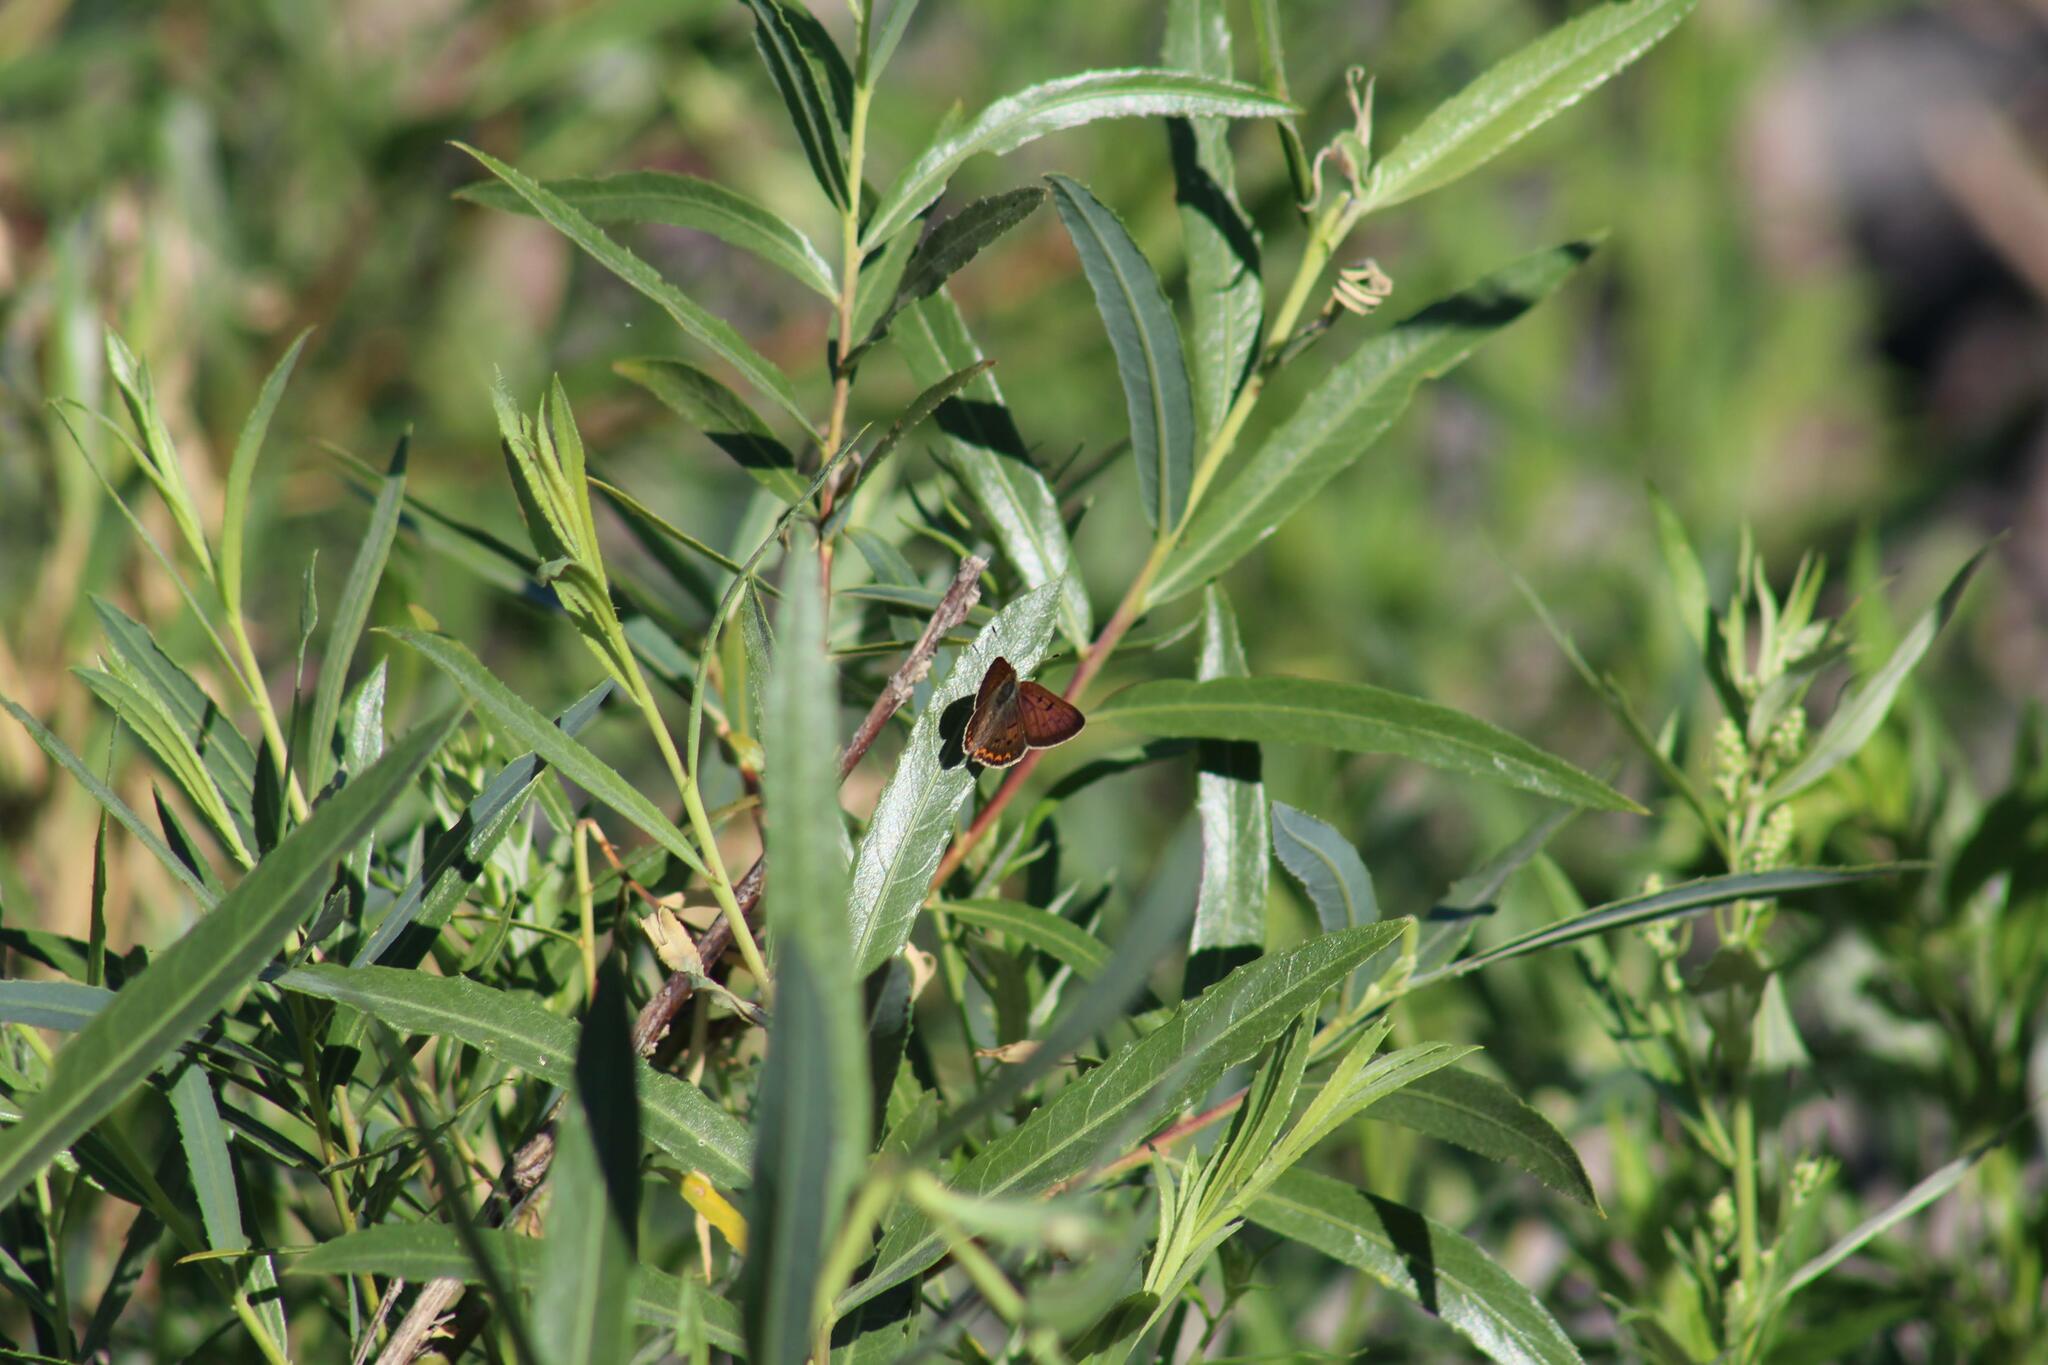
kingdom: Animalia
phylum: Arthropoda
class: Insecta
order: Lepidoptera
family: Lycaenidae
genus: Tharsalea
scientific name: Tharsalea helloides
